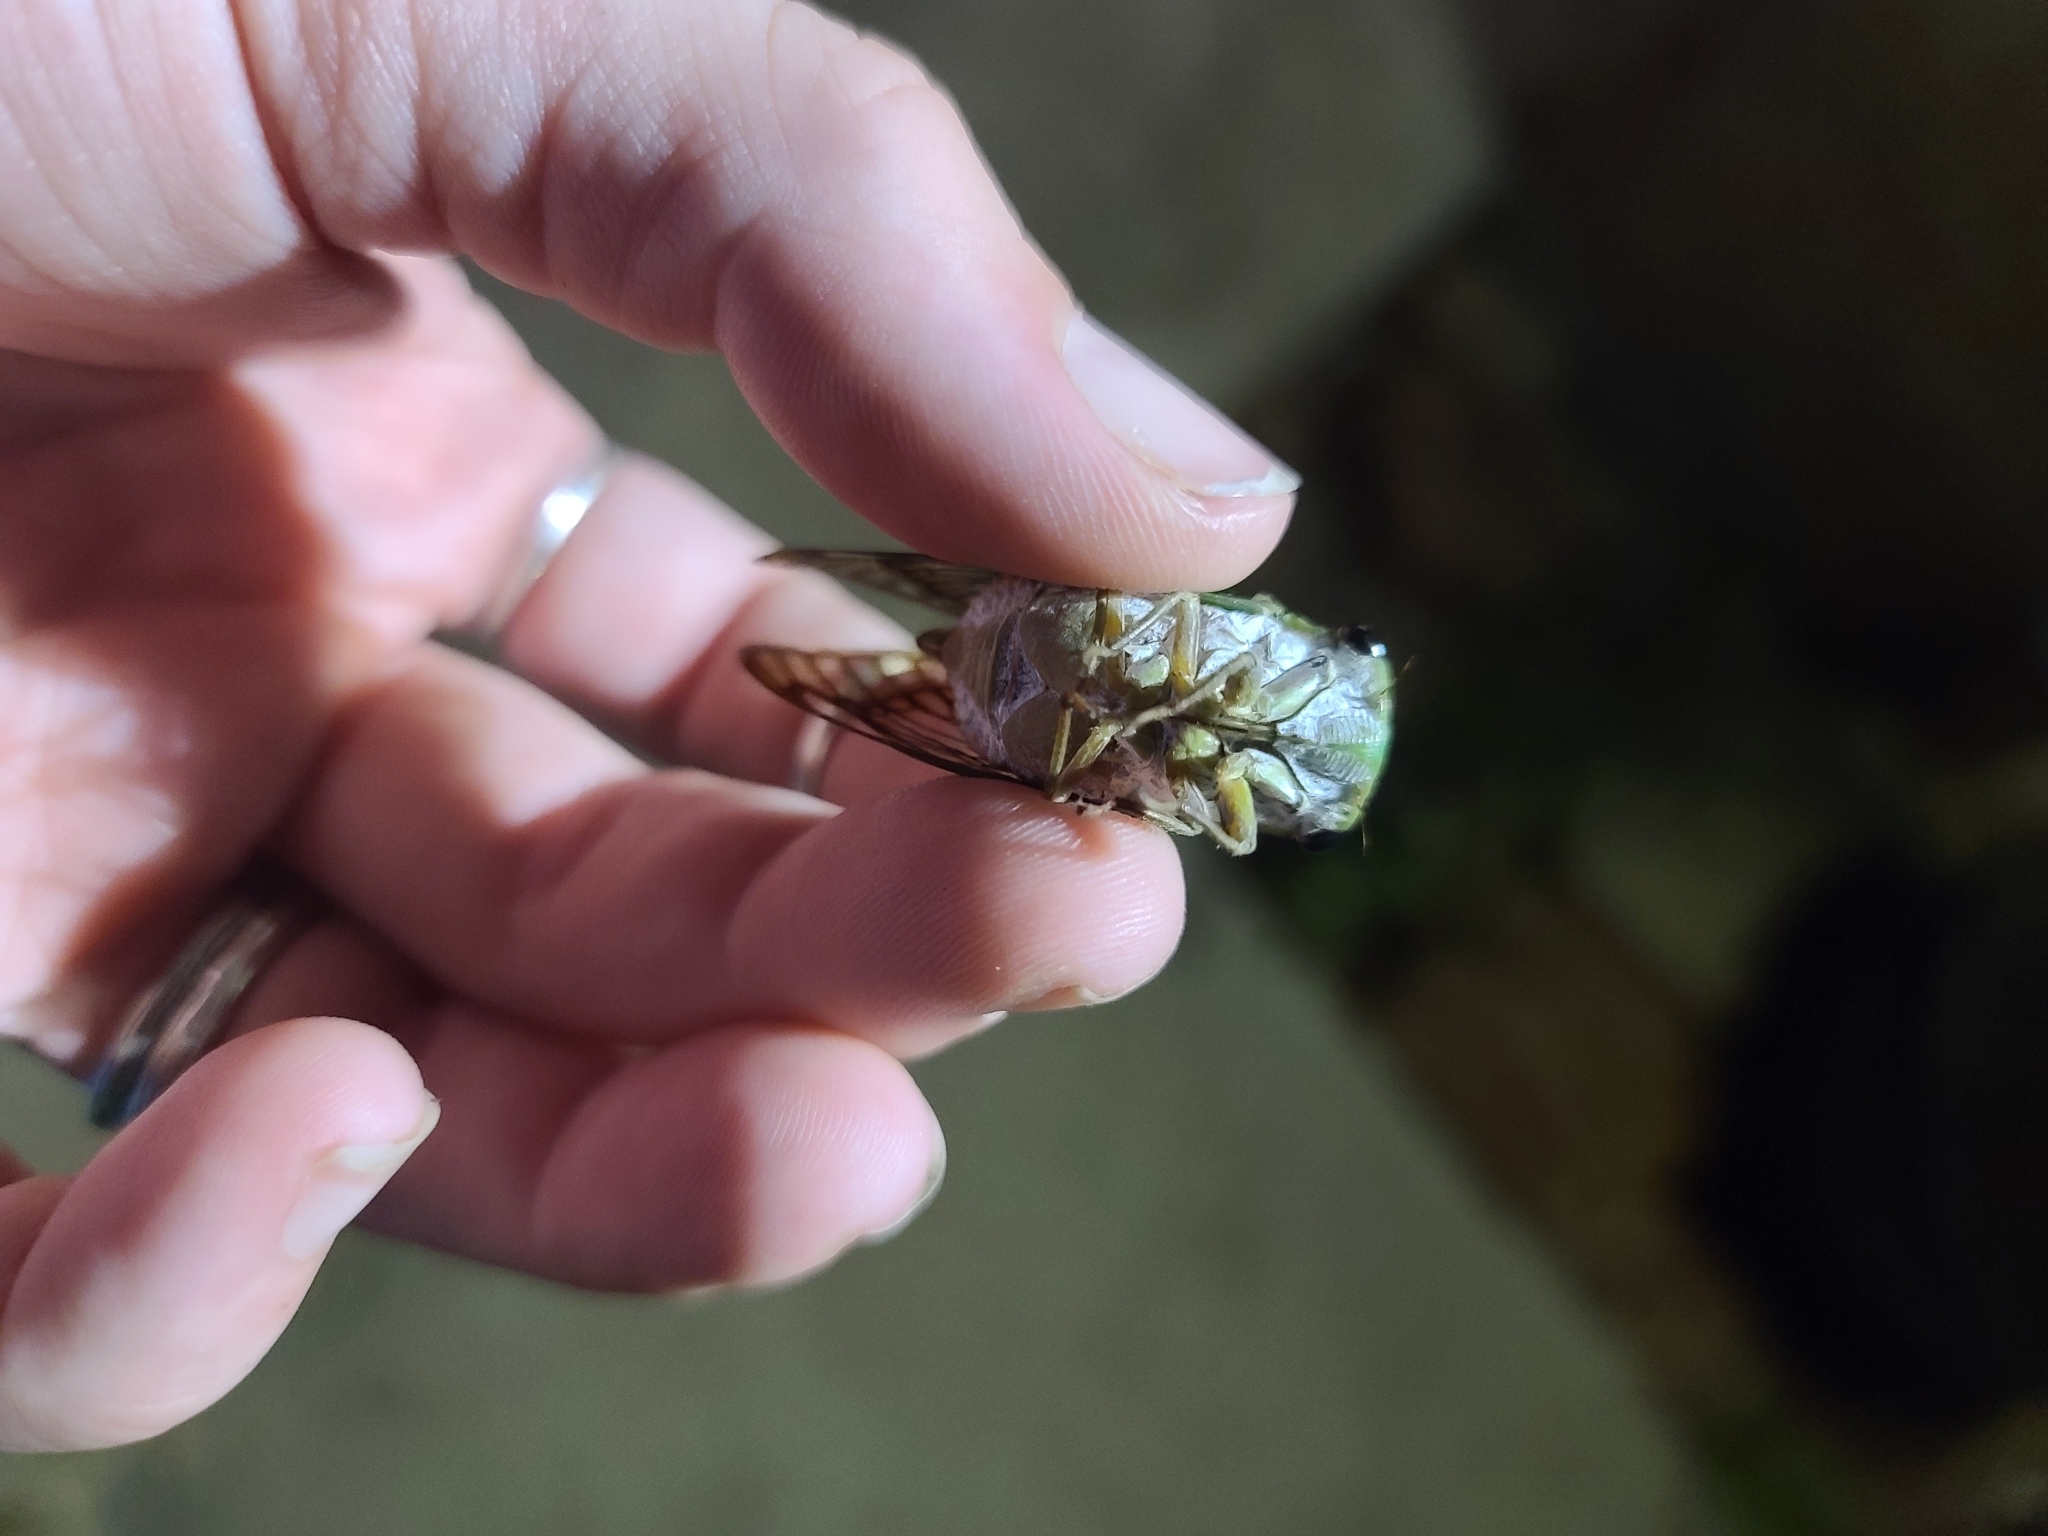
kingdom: Animalia
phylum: Arthropoda
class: Insecta
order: Hemiptera
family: Cicadidae
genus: Neotibicen
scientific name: Neotibicen superbus
